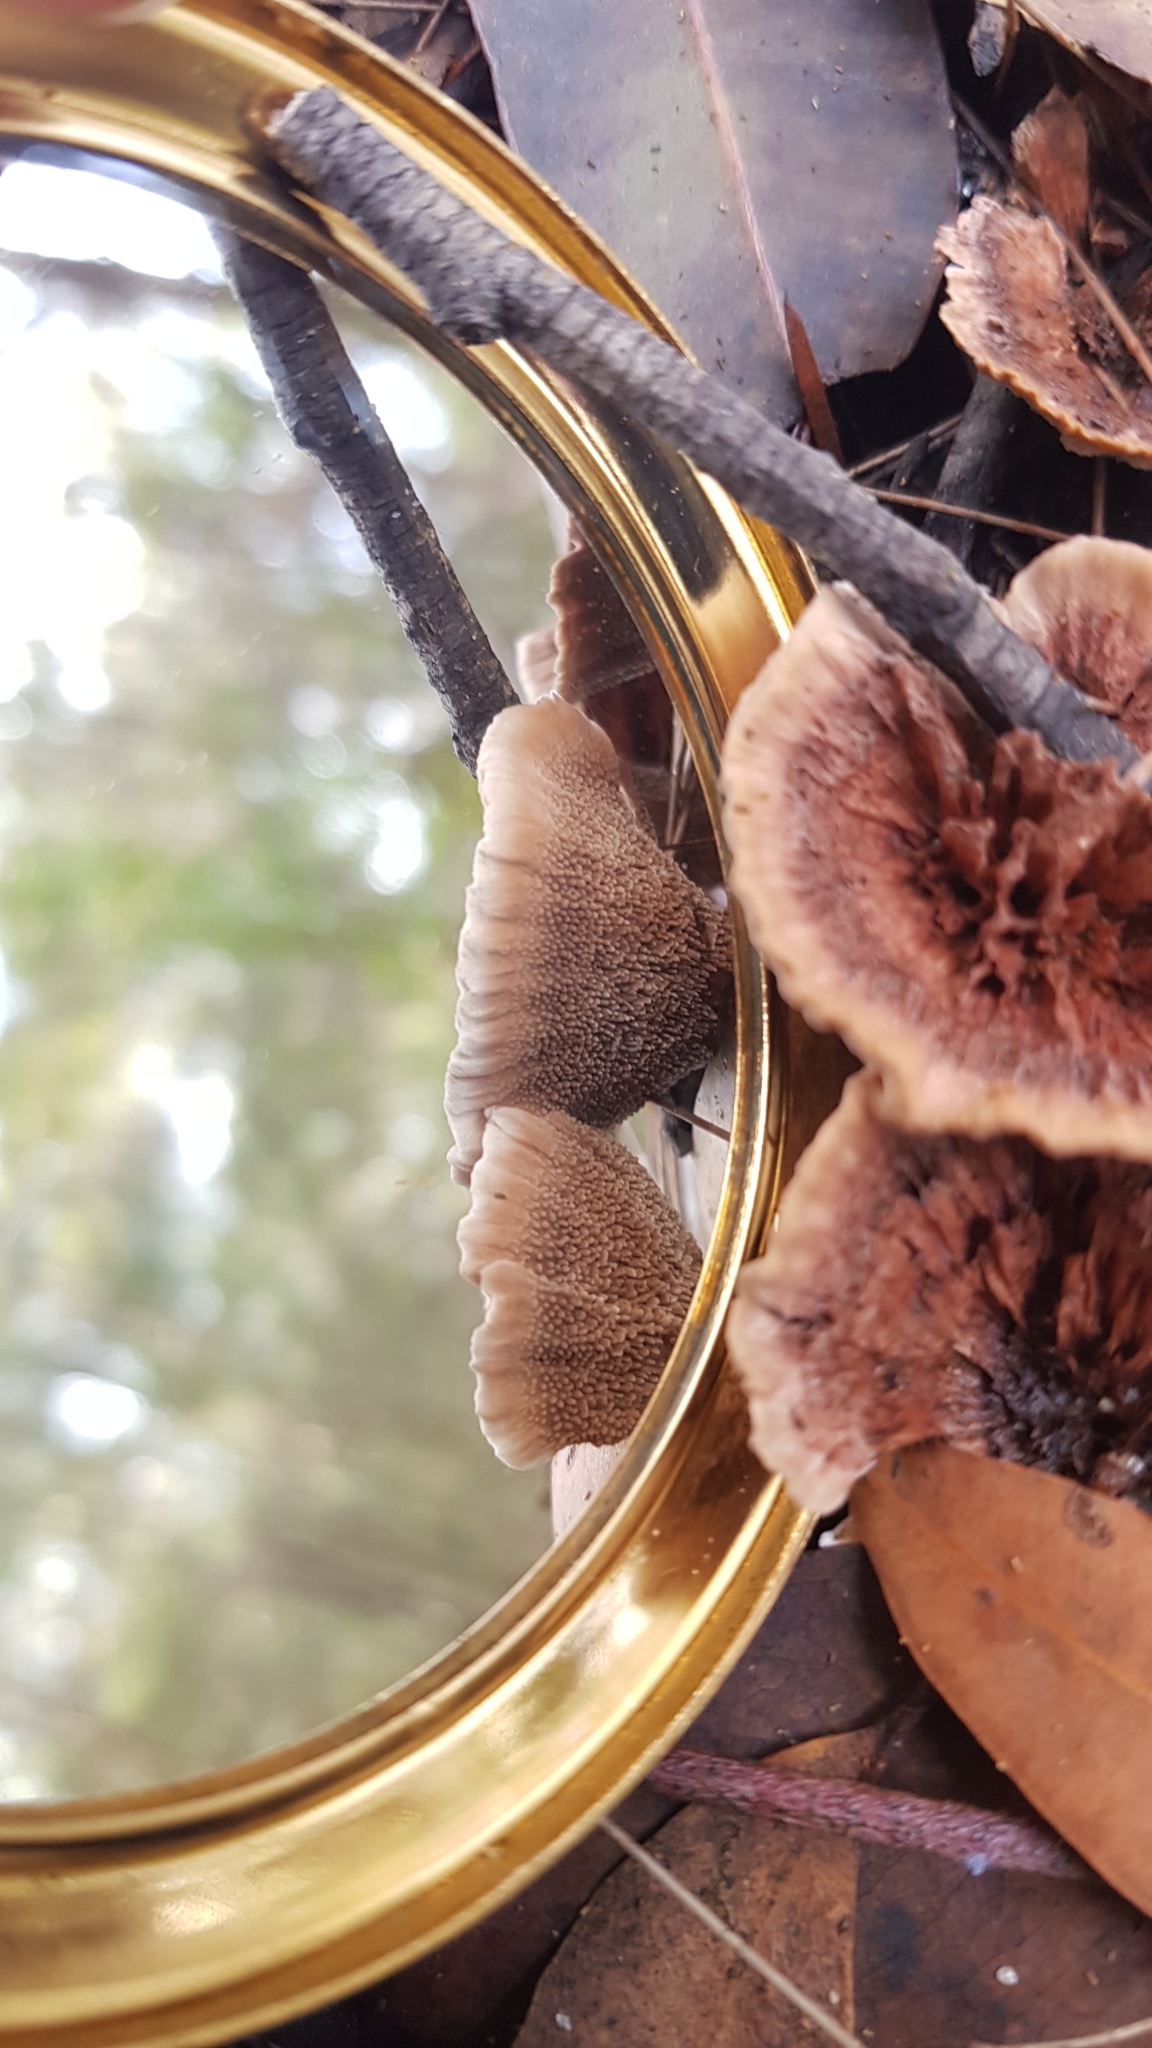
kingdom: Fungi
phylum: Basidiomycota
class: Agaricomycetes
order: Thelephorales
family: Bankeraceae
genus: Hydnellum
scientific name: Hydnellum auratile
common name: Gold tooth
